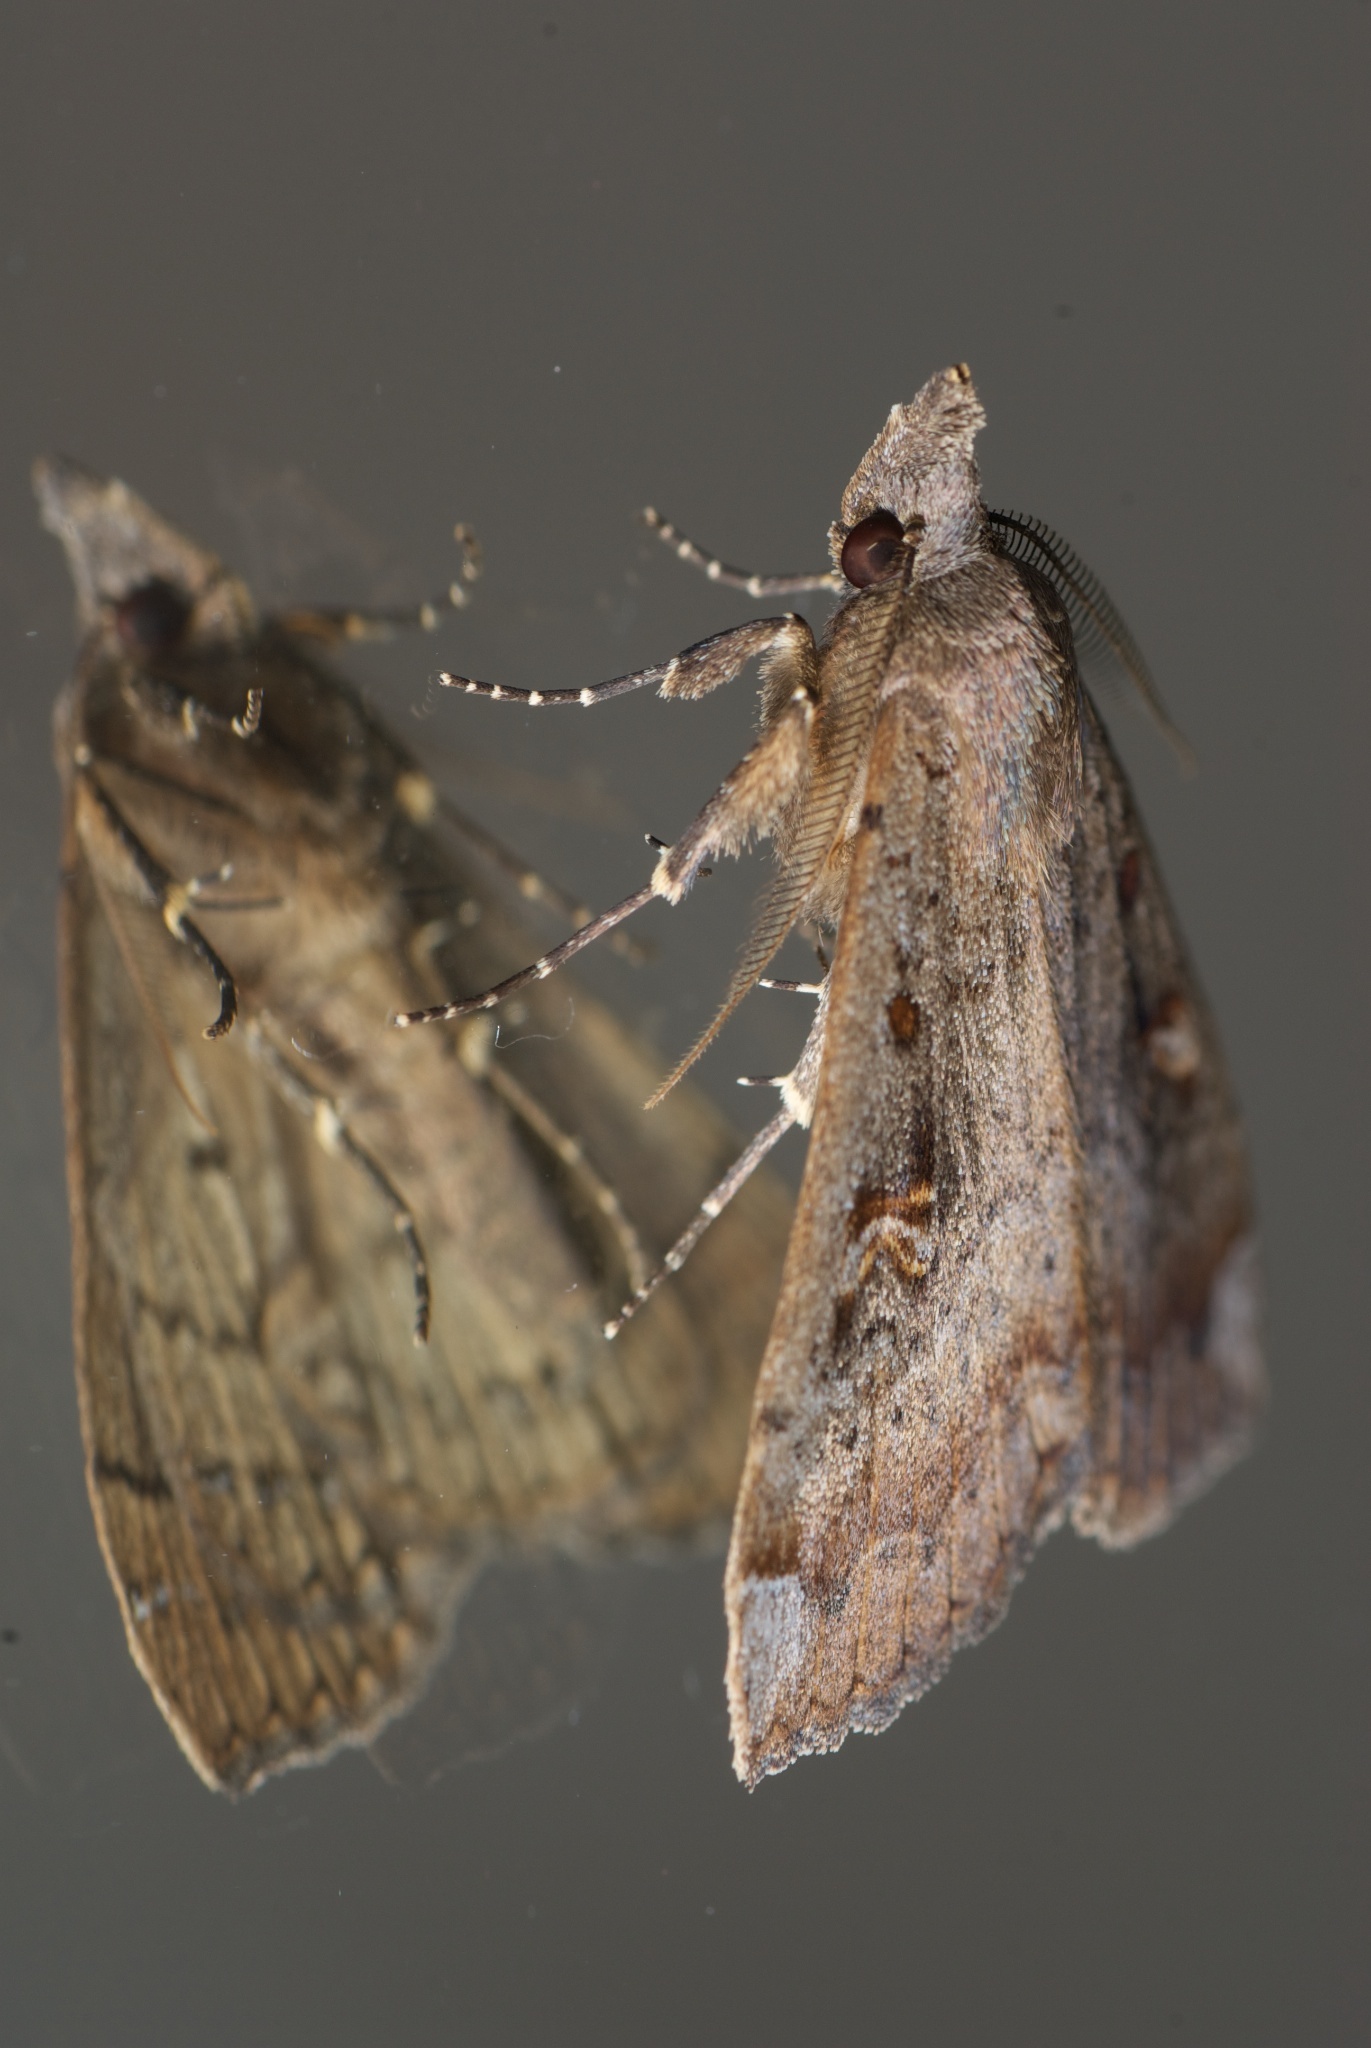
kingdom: Animalia
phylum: Arthropoda
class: Insecta
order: Lepidoptera
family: Erebidae
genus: Rhapsa
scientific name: Rhapsa scotosialis
